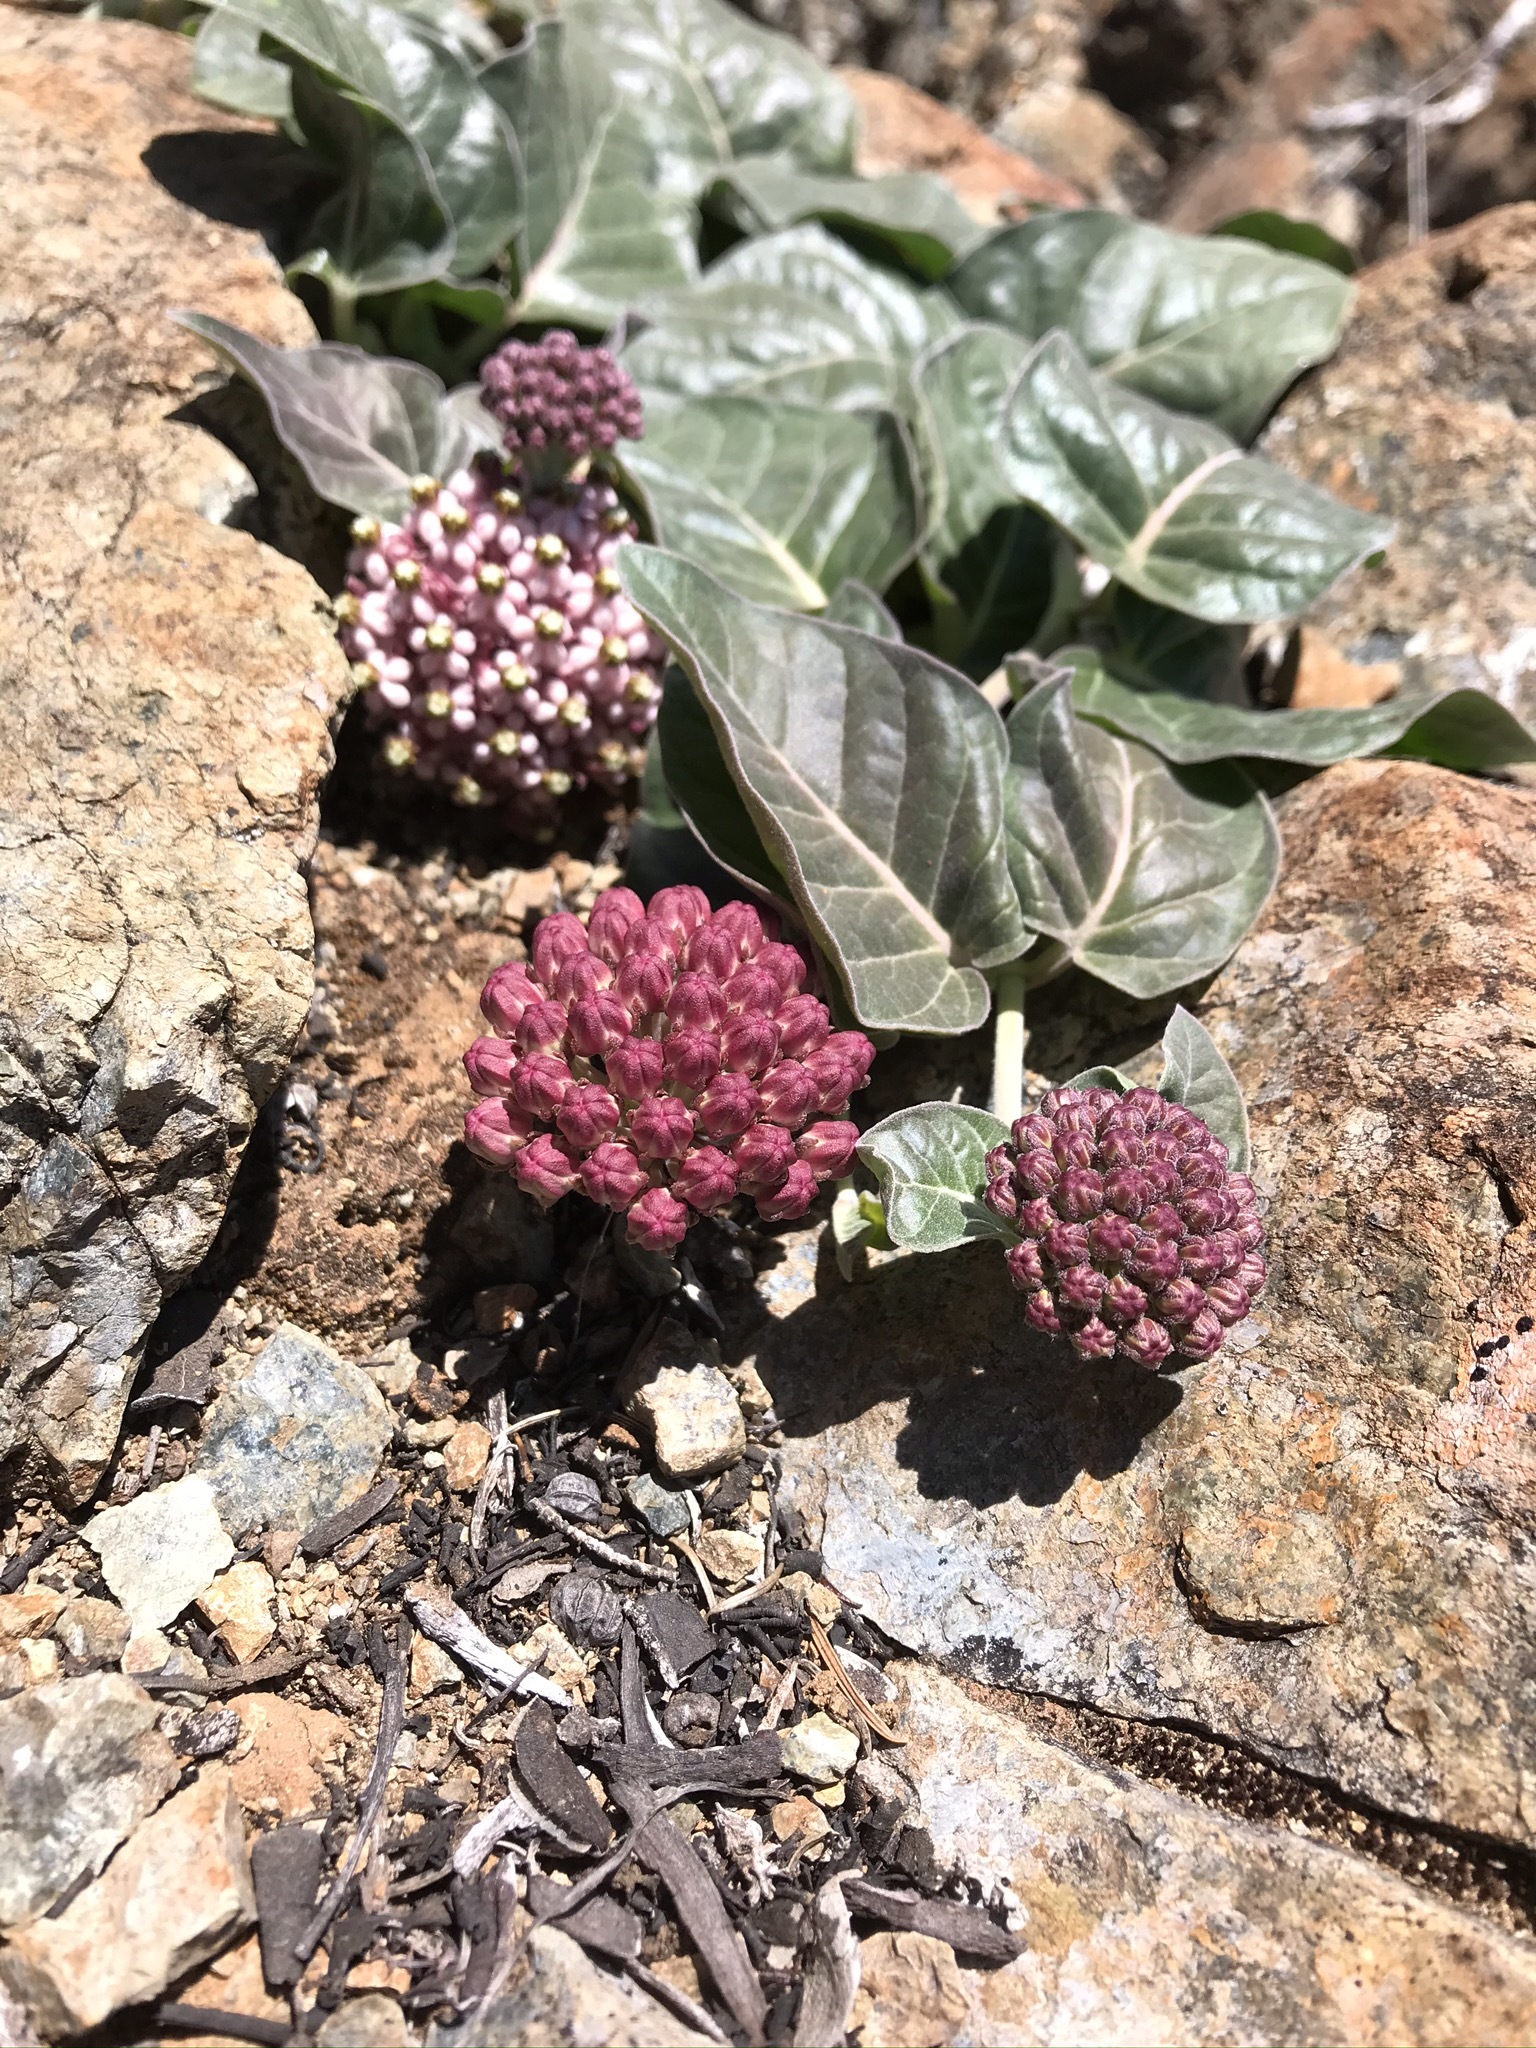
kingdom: Plantae
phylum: Tracheophyta
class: Magnoliopsida
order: Gentianales
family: Apocynaceae
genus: Asclepias
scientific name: Asclepias solanoana
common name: Serpentine milkweed
